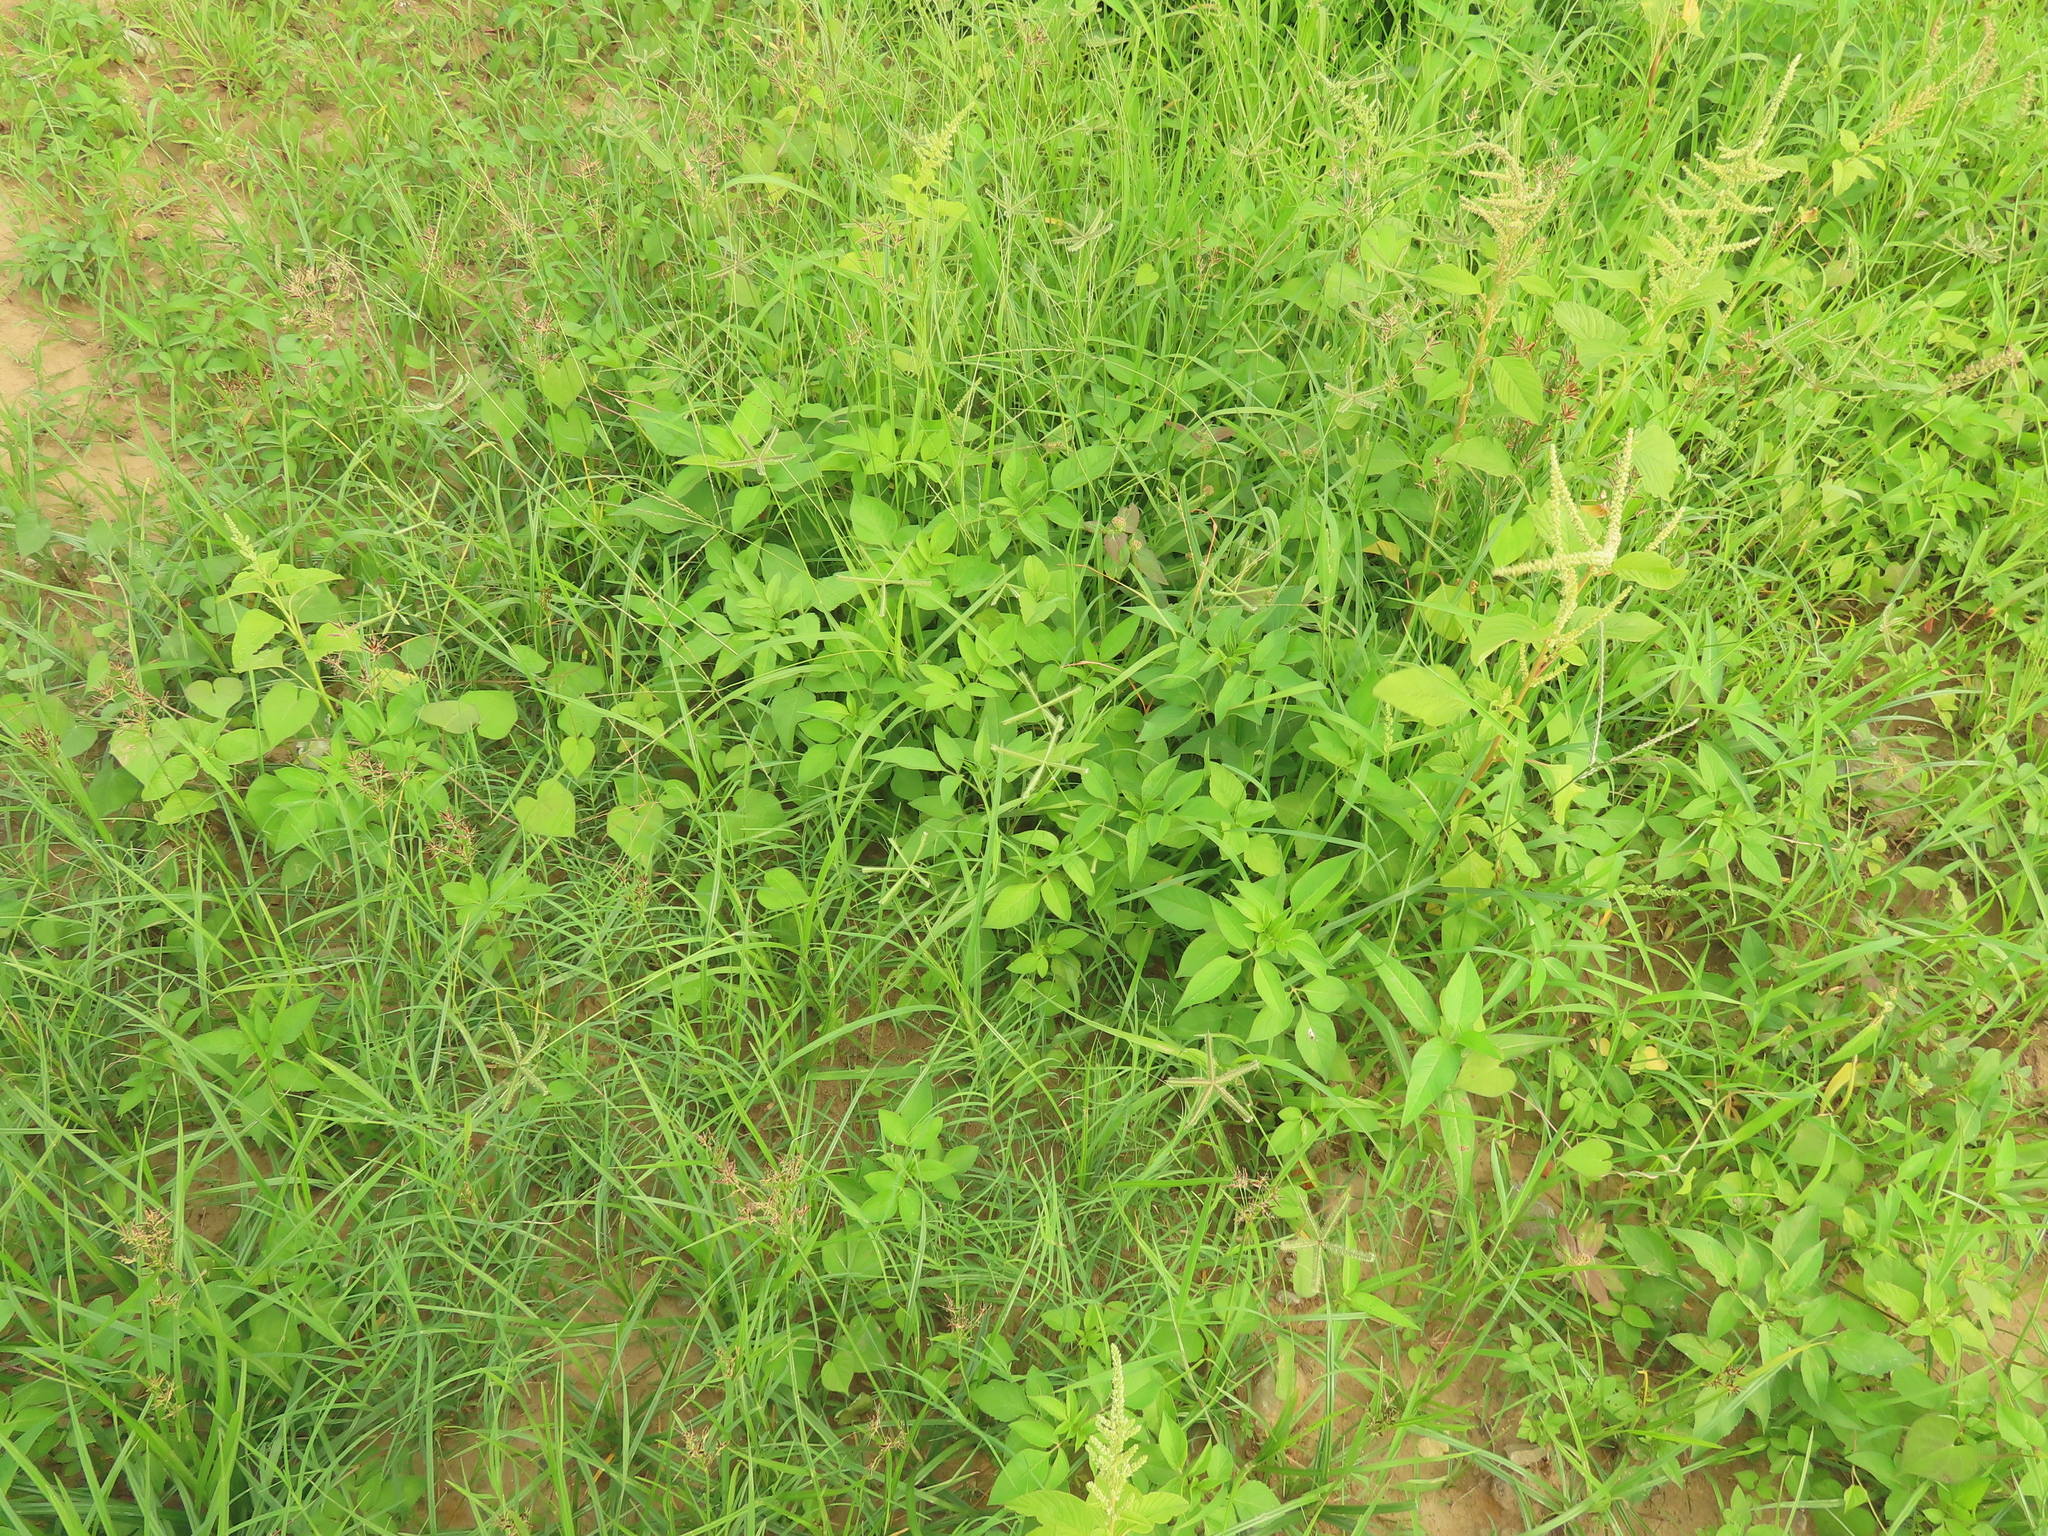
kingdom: Plantae
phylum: Tracheophyta
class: Liliopsida
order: Poales
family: Poaceae
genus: Dactyloctenium
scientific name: Dactyloctenium aegyptium
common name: Egyptian grass
